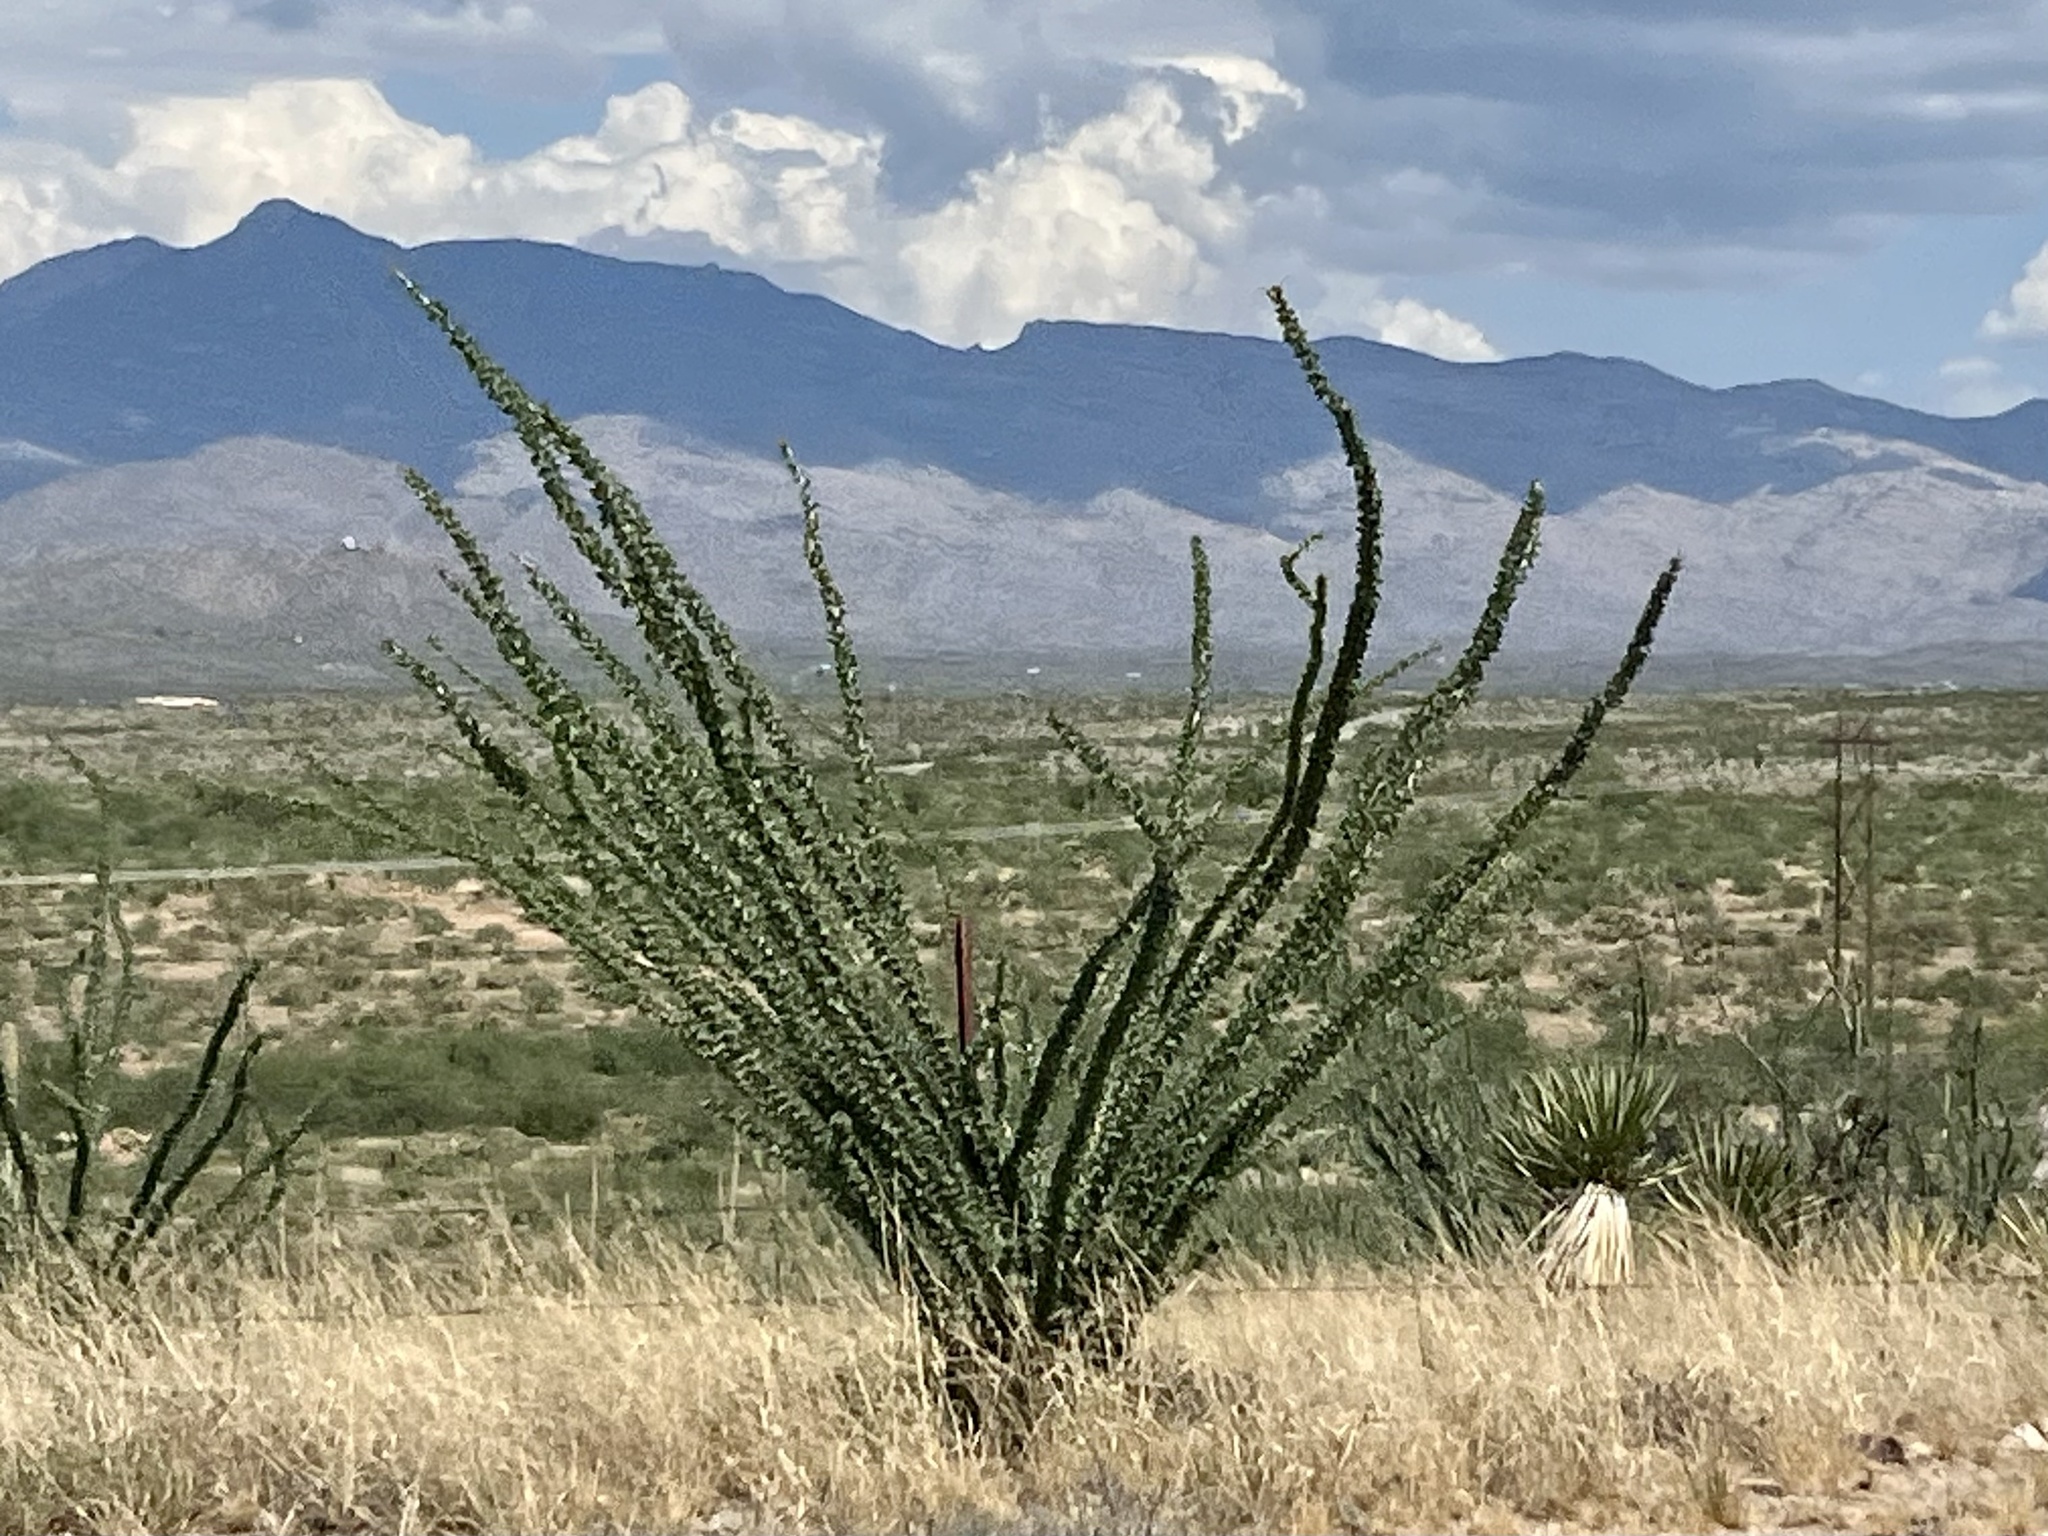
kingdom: Plantae
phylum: Tracheophyta
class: Magnoliopsida
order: Ericales
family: Fouquieriaceae
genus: Fouquieria
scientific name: Fouquieria splendens
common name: Vine-cactus
